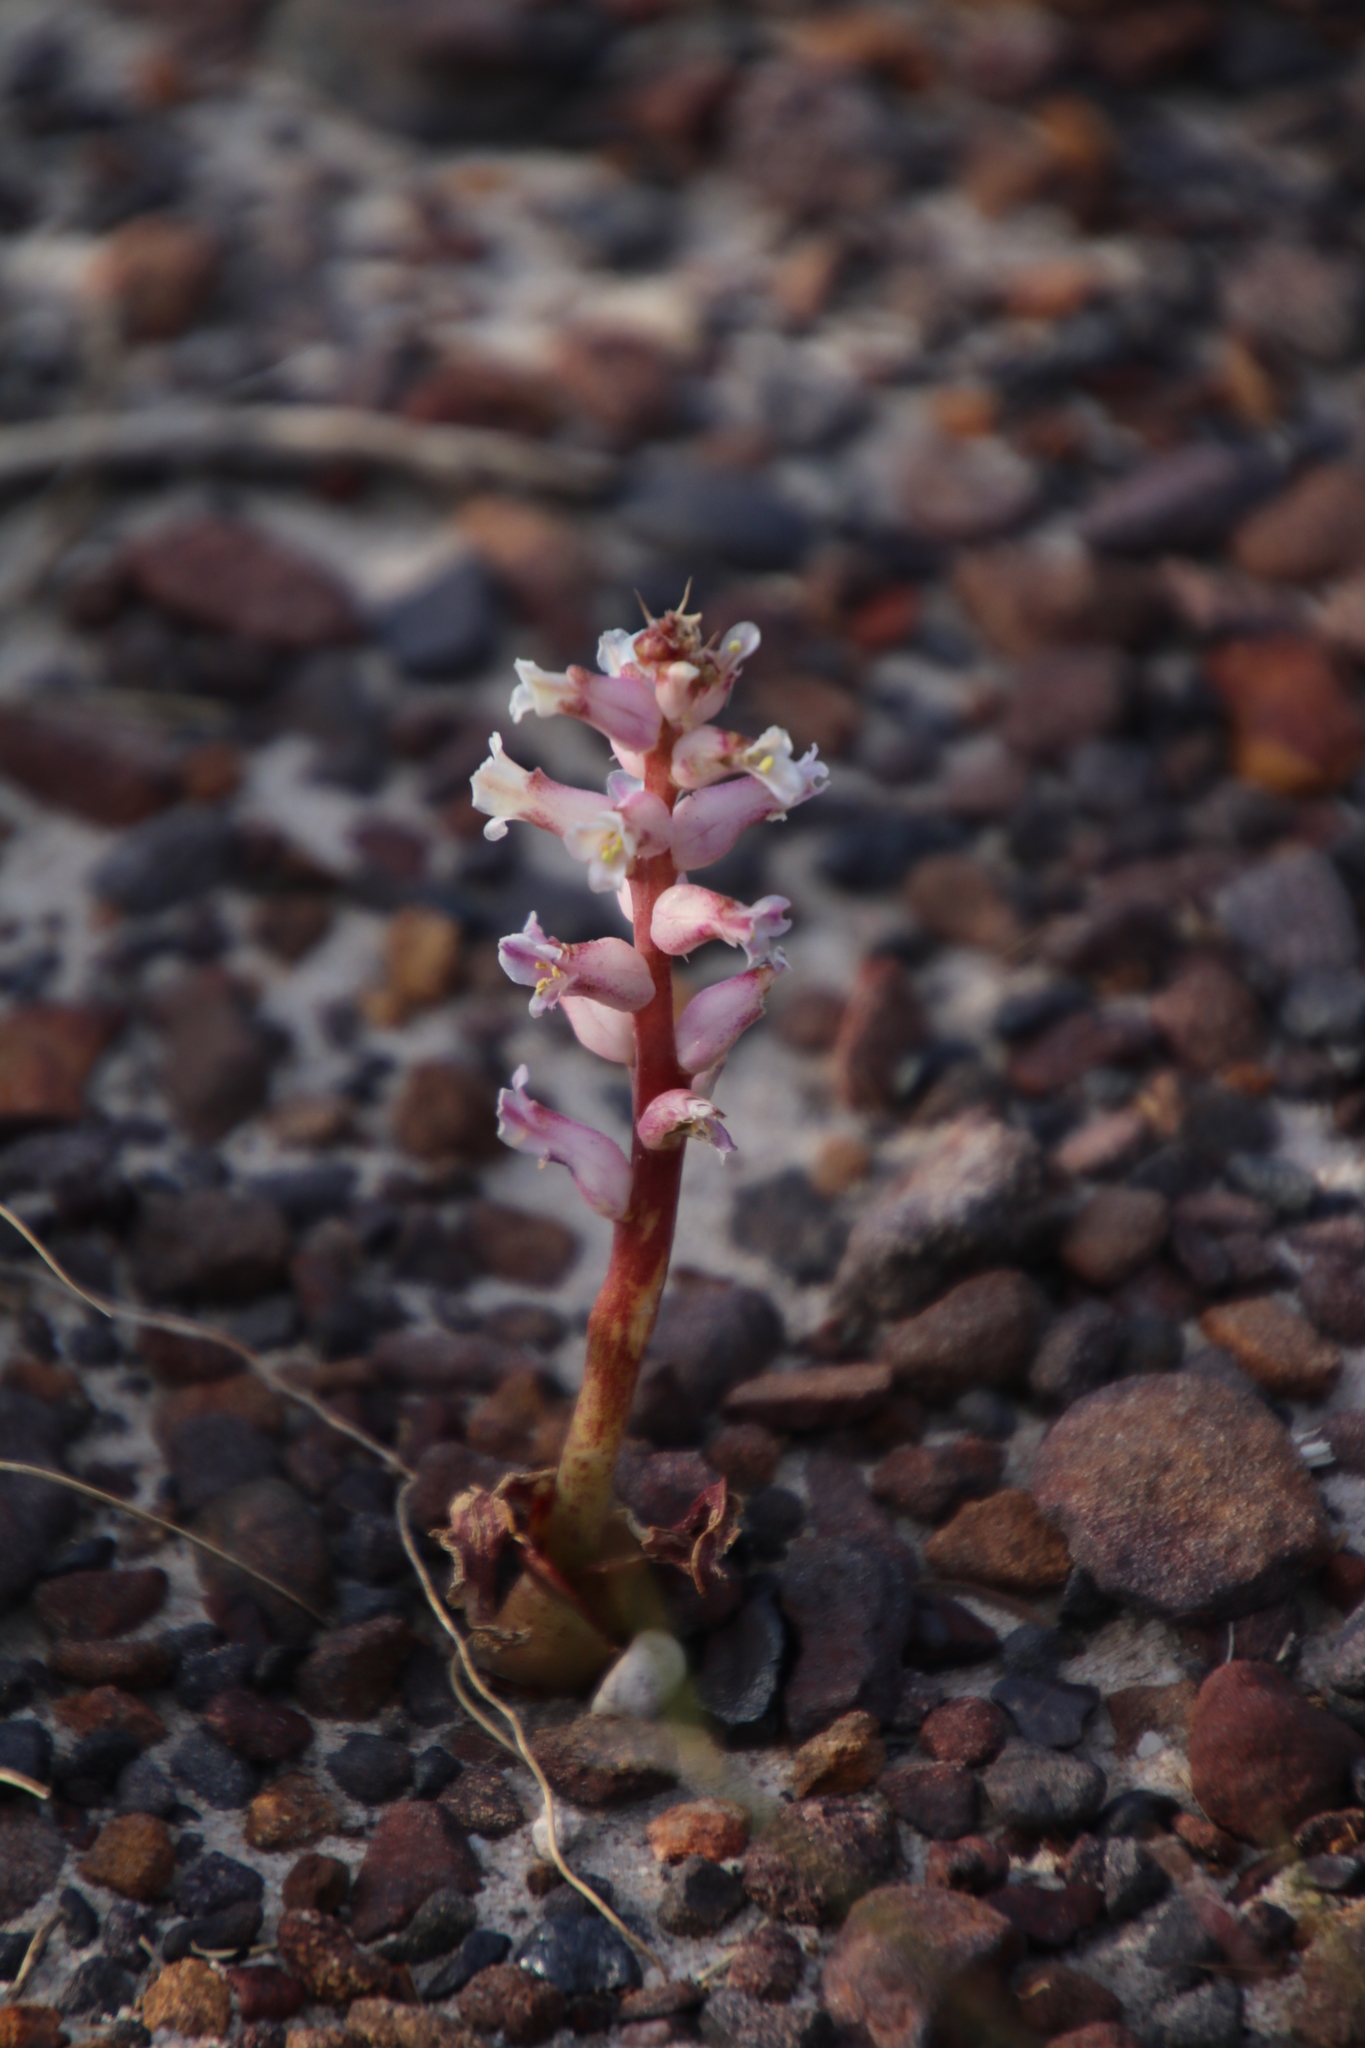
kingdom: Plantae
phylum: Tracheophyta
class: Liliopsida
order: Asparagales
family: Asparagaceae
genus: Lachenalia
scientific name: Lachenalia fistulosa
